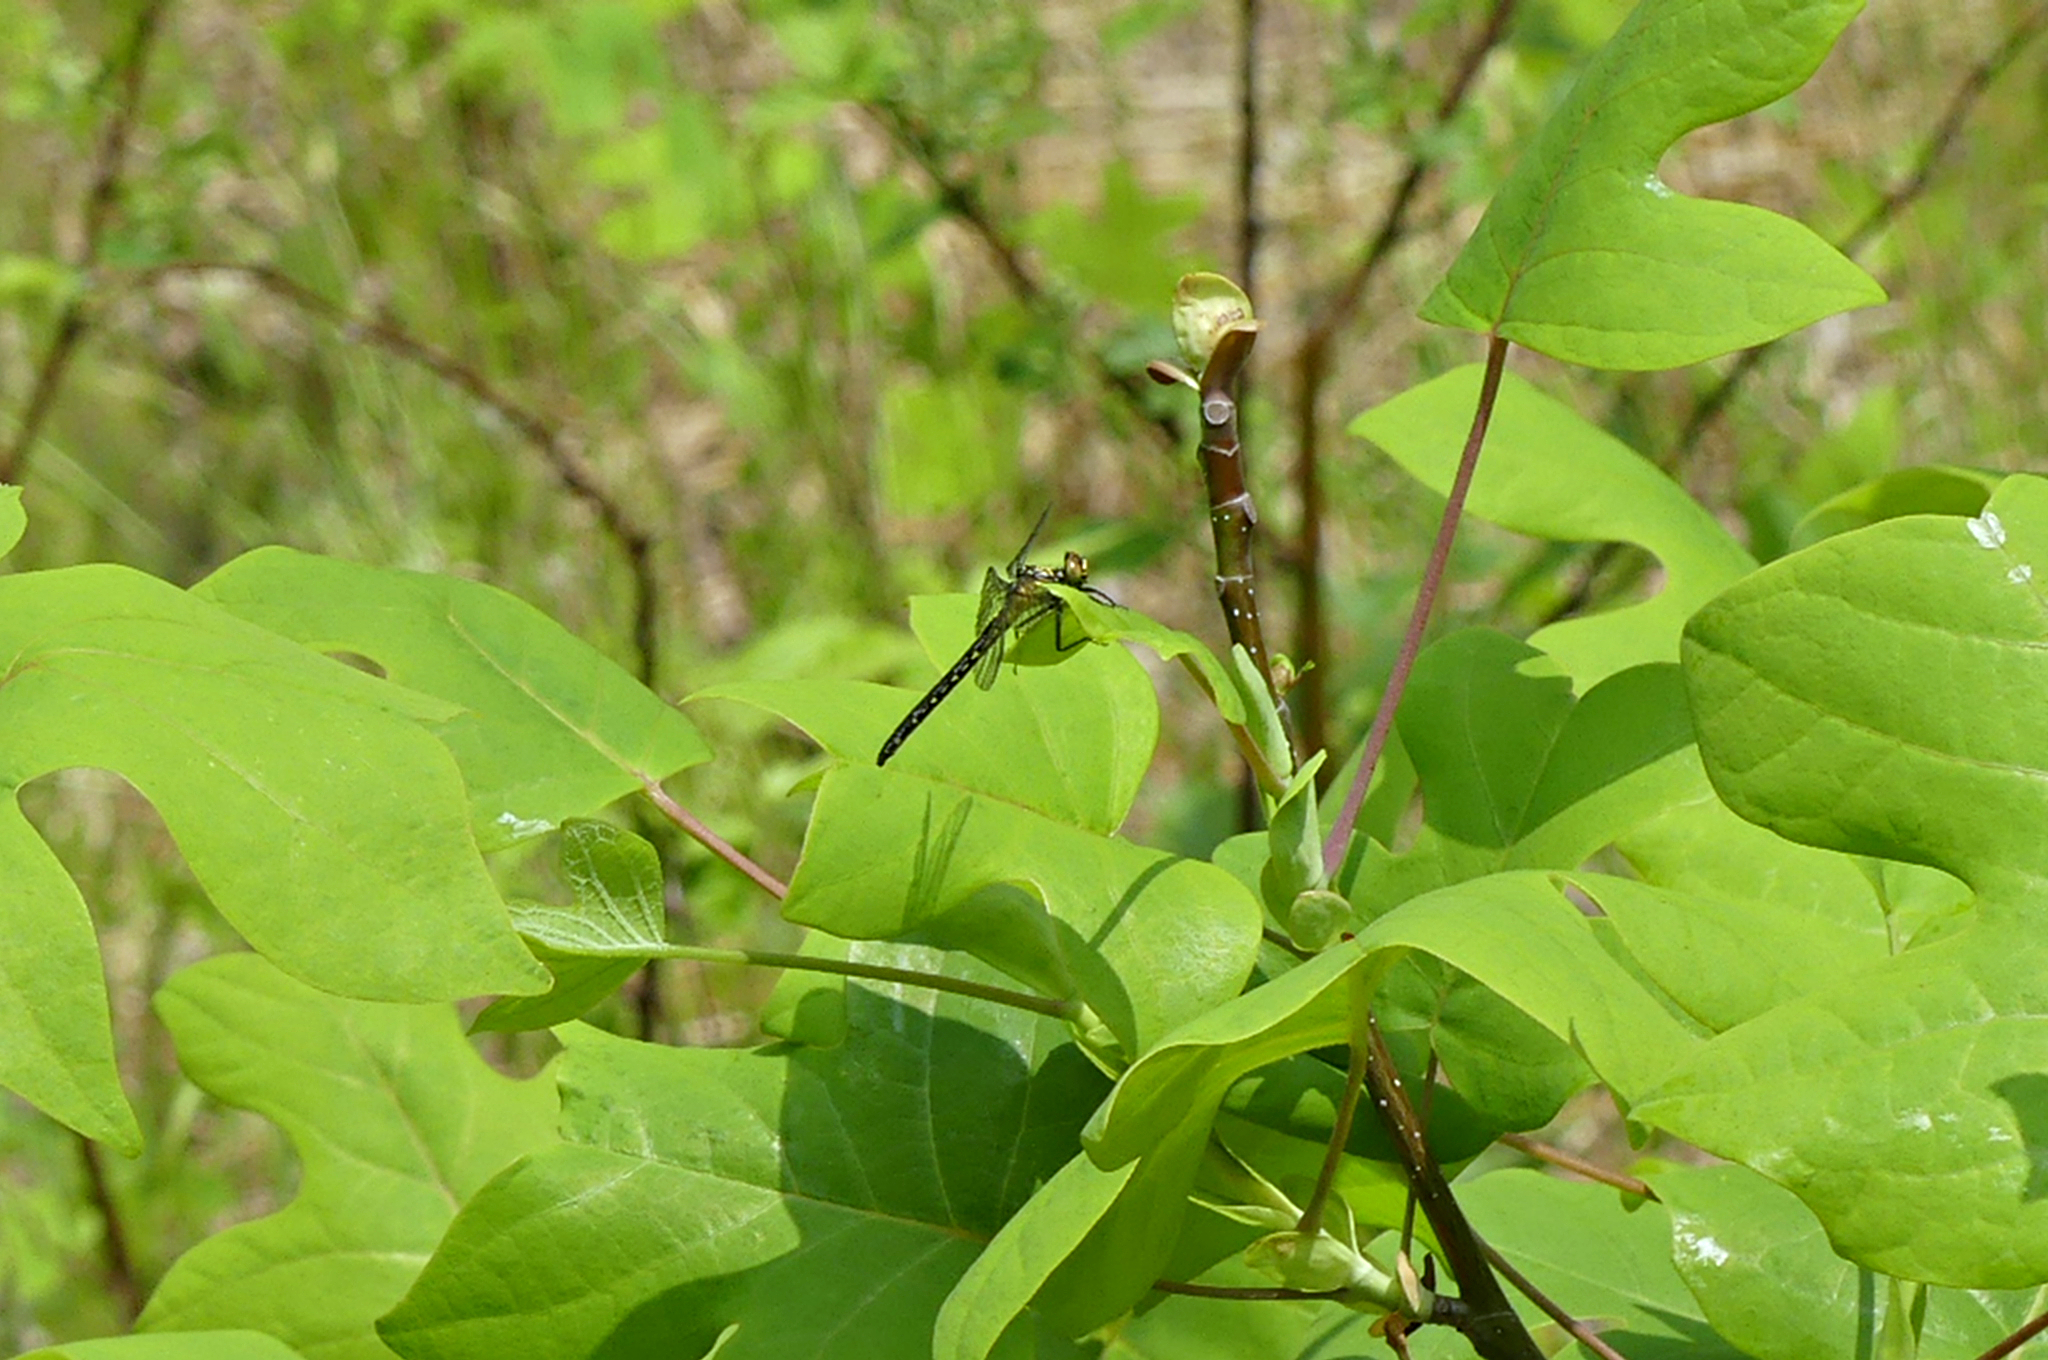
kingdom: Animalia
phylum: Arthropoda
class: Insecta
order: Odonata
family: Gomphidae
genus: Lanthus
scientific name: Lanthus vernalis
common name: Southern pygmy clubtail
